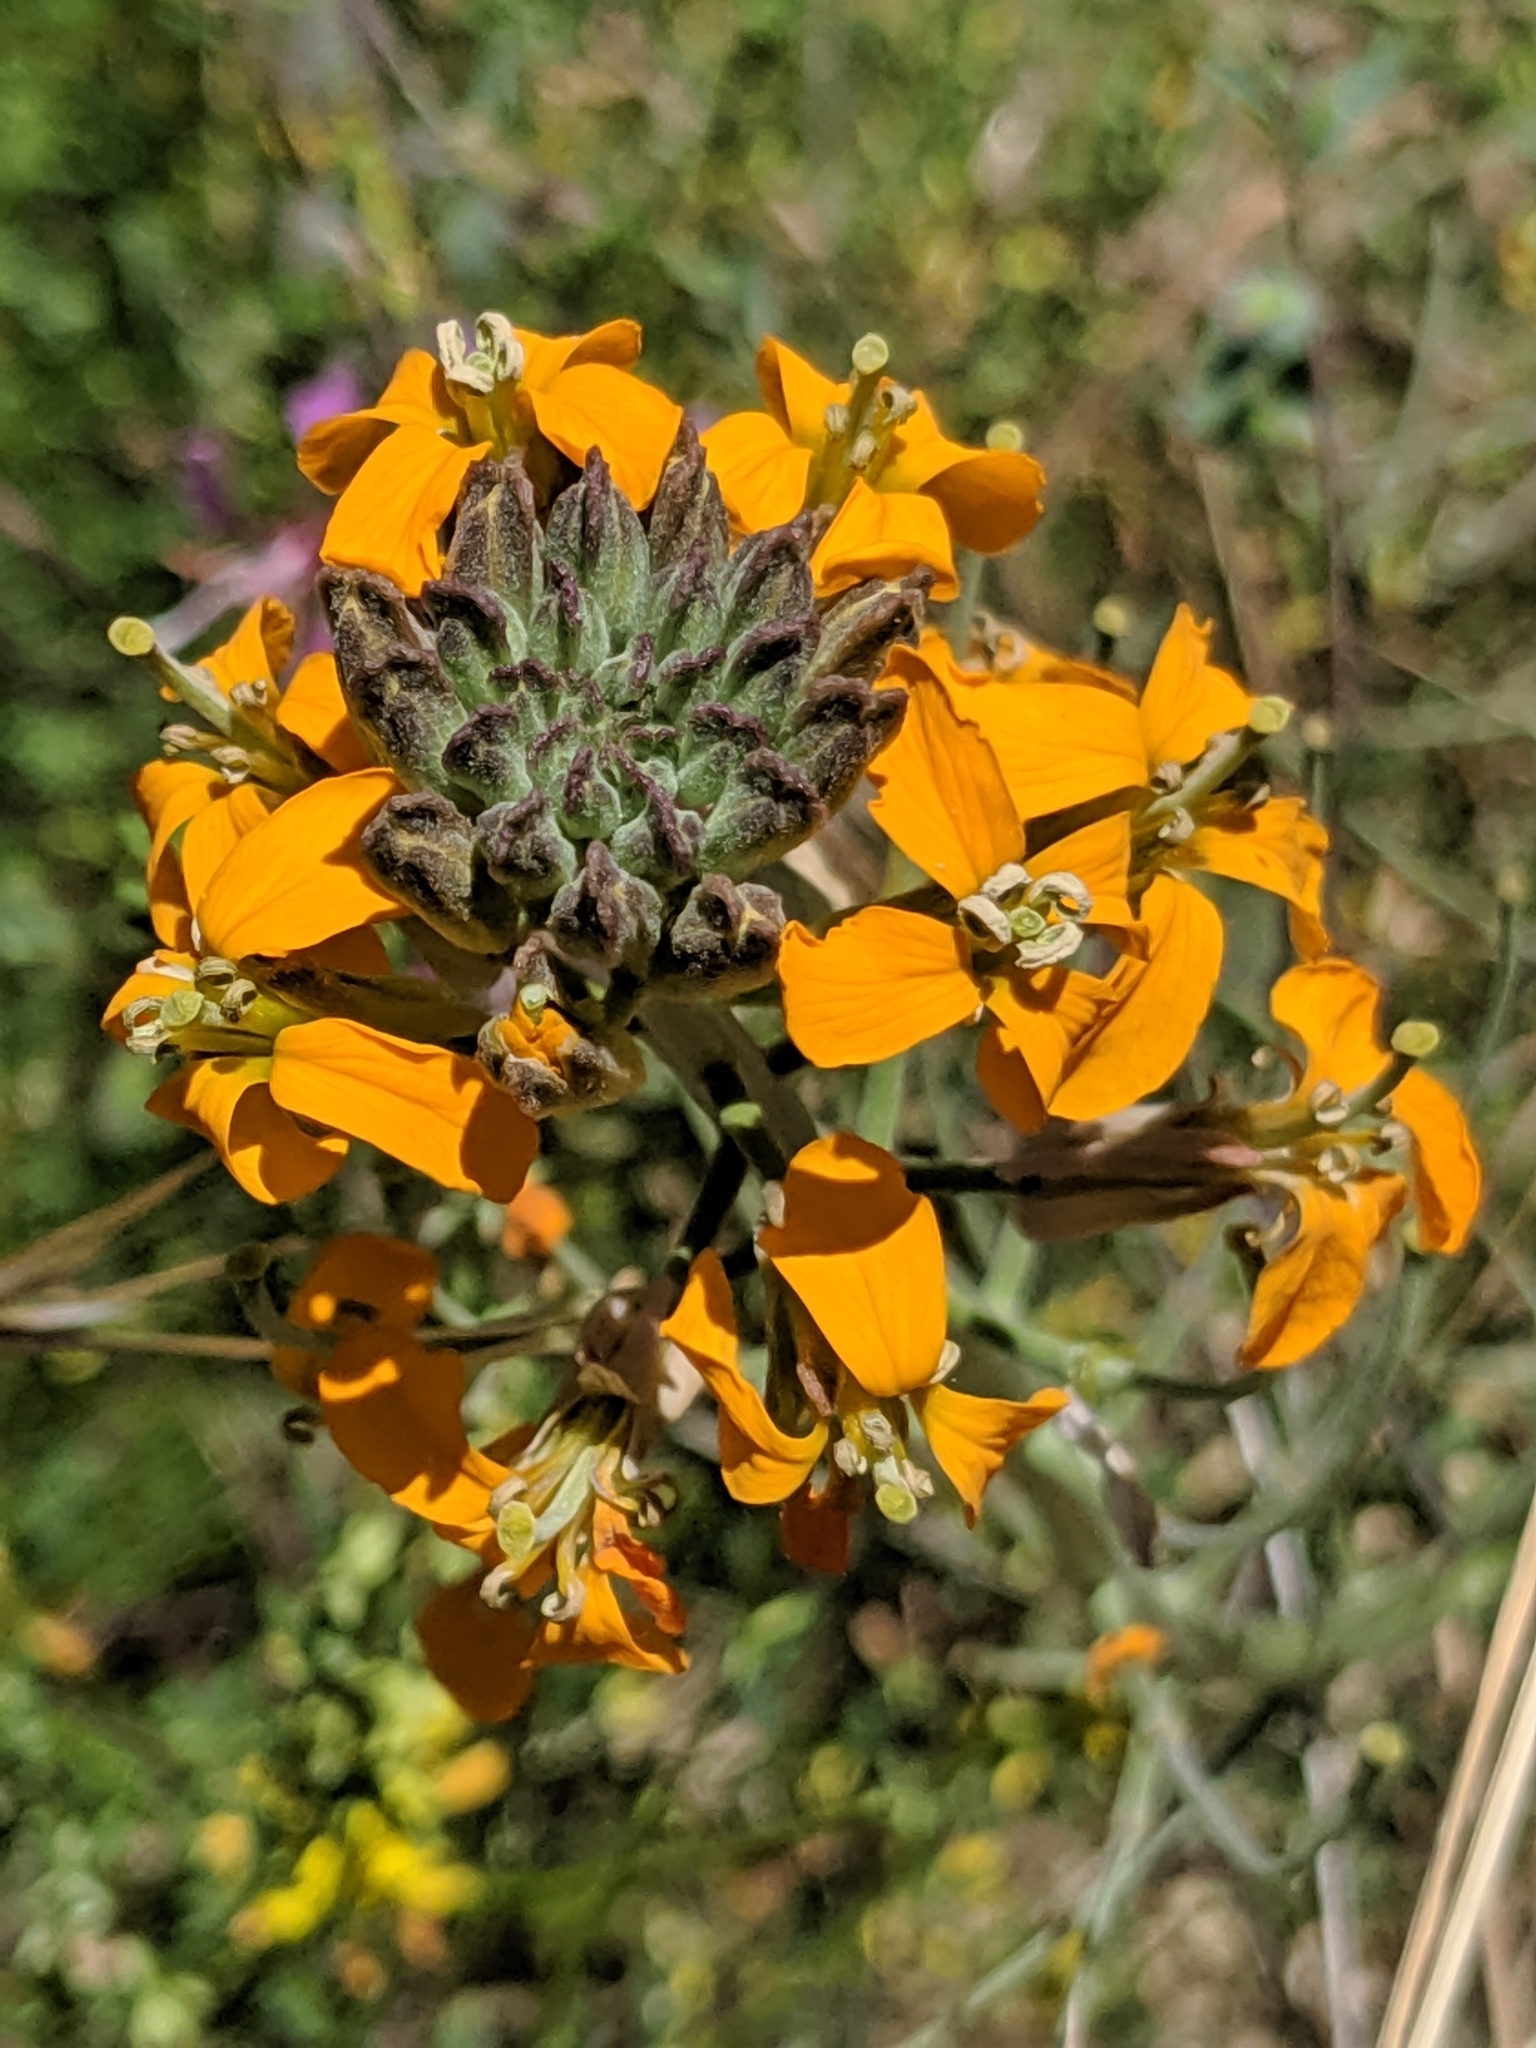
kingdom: Plantae
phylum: Tracheophyta
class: Magnoliopsida
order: Brassicales
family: Brassicaceae
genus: Erysimum
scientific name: Erysimum capitatum
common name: Western wallflower
